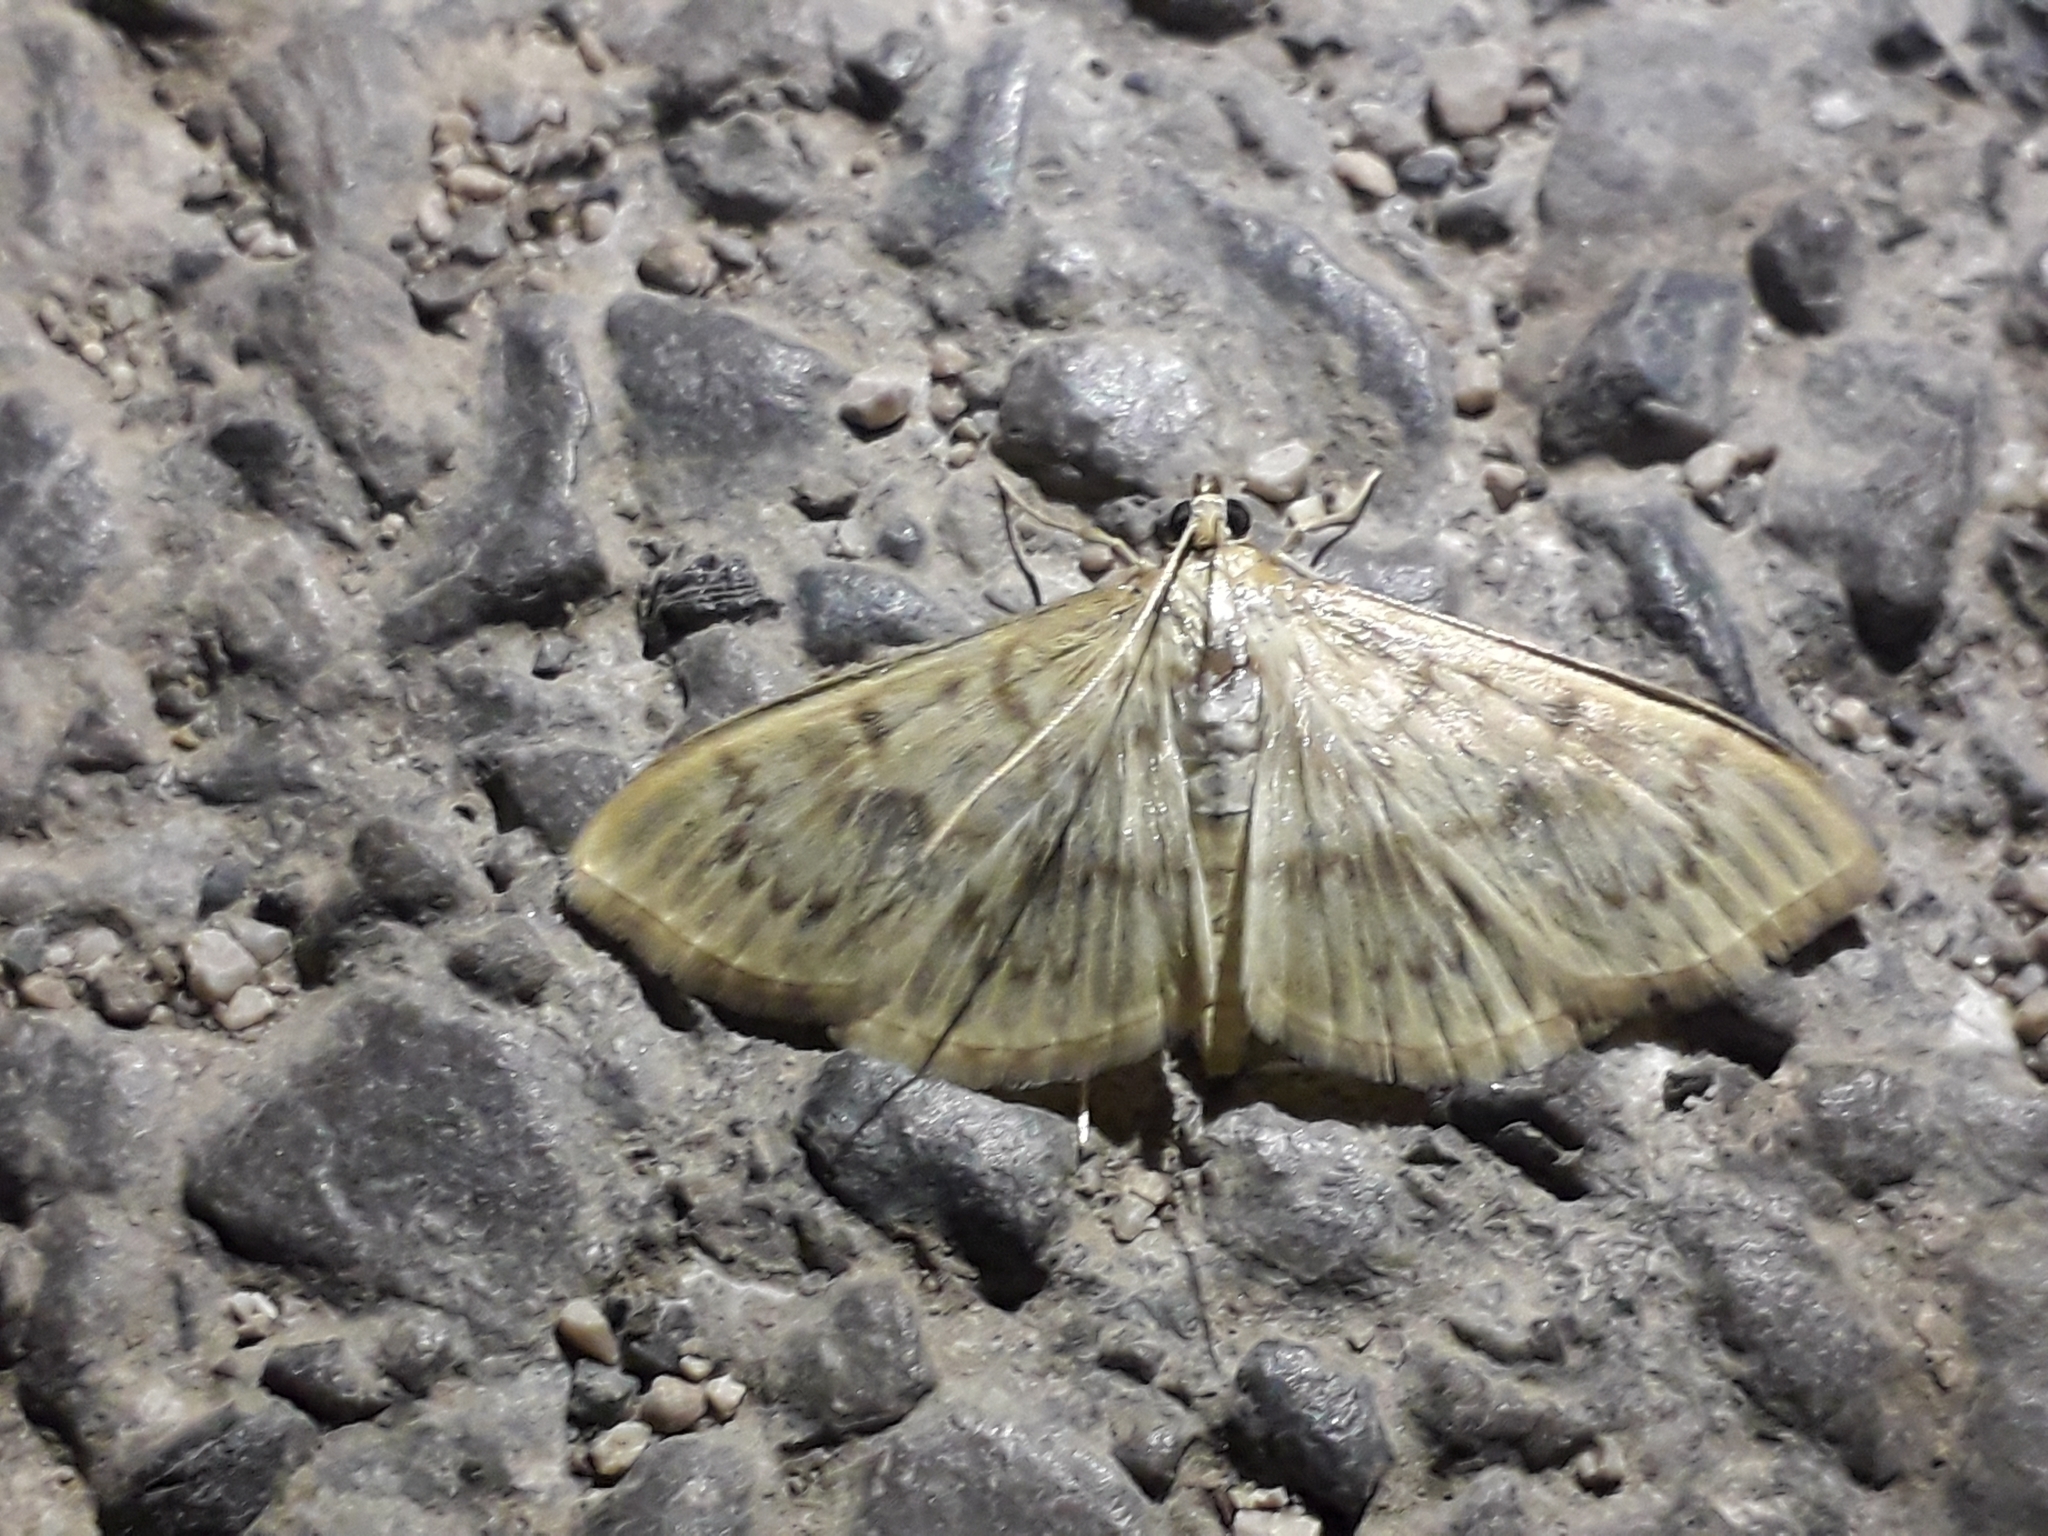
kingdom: Animalia
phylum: Arthropoda
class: Insecta
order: Lepidoptera
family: Crambidae
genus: Patania
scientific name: Patania ruralis
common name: Mother of pearl
